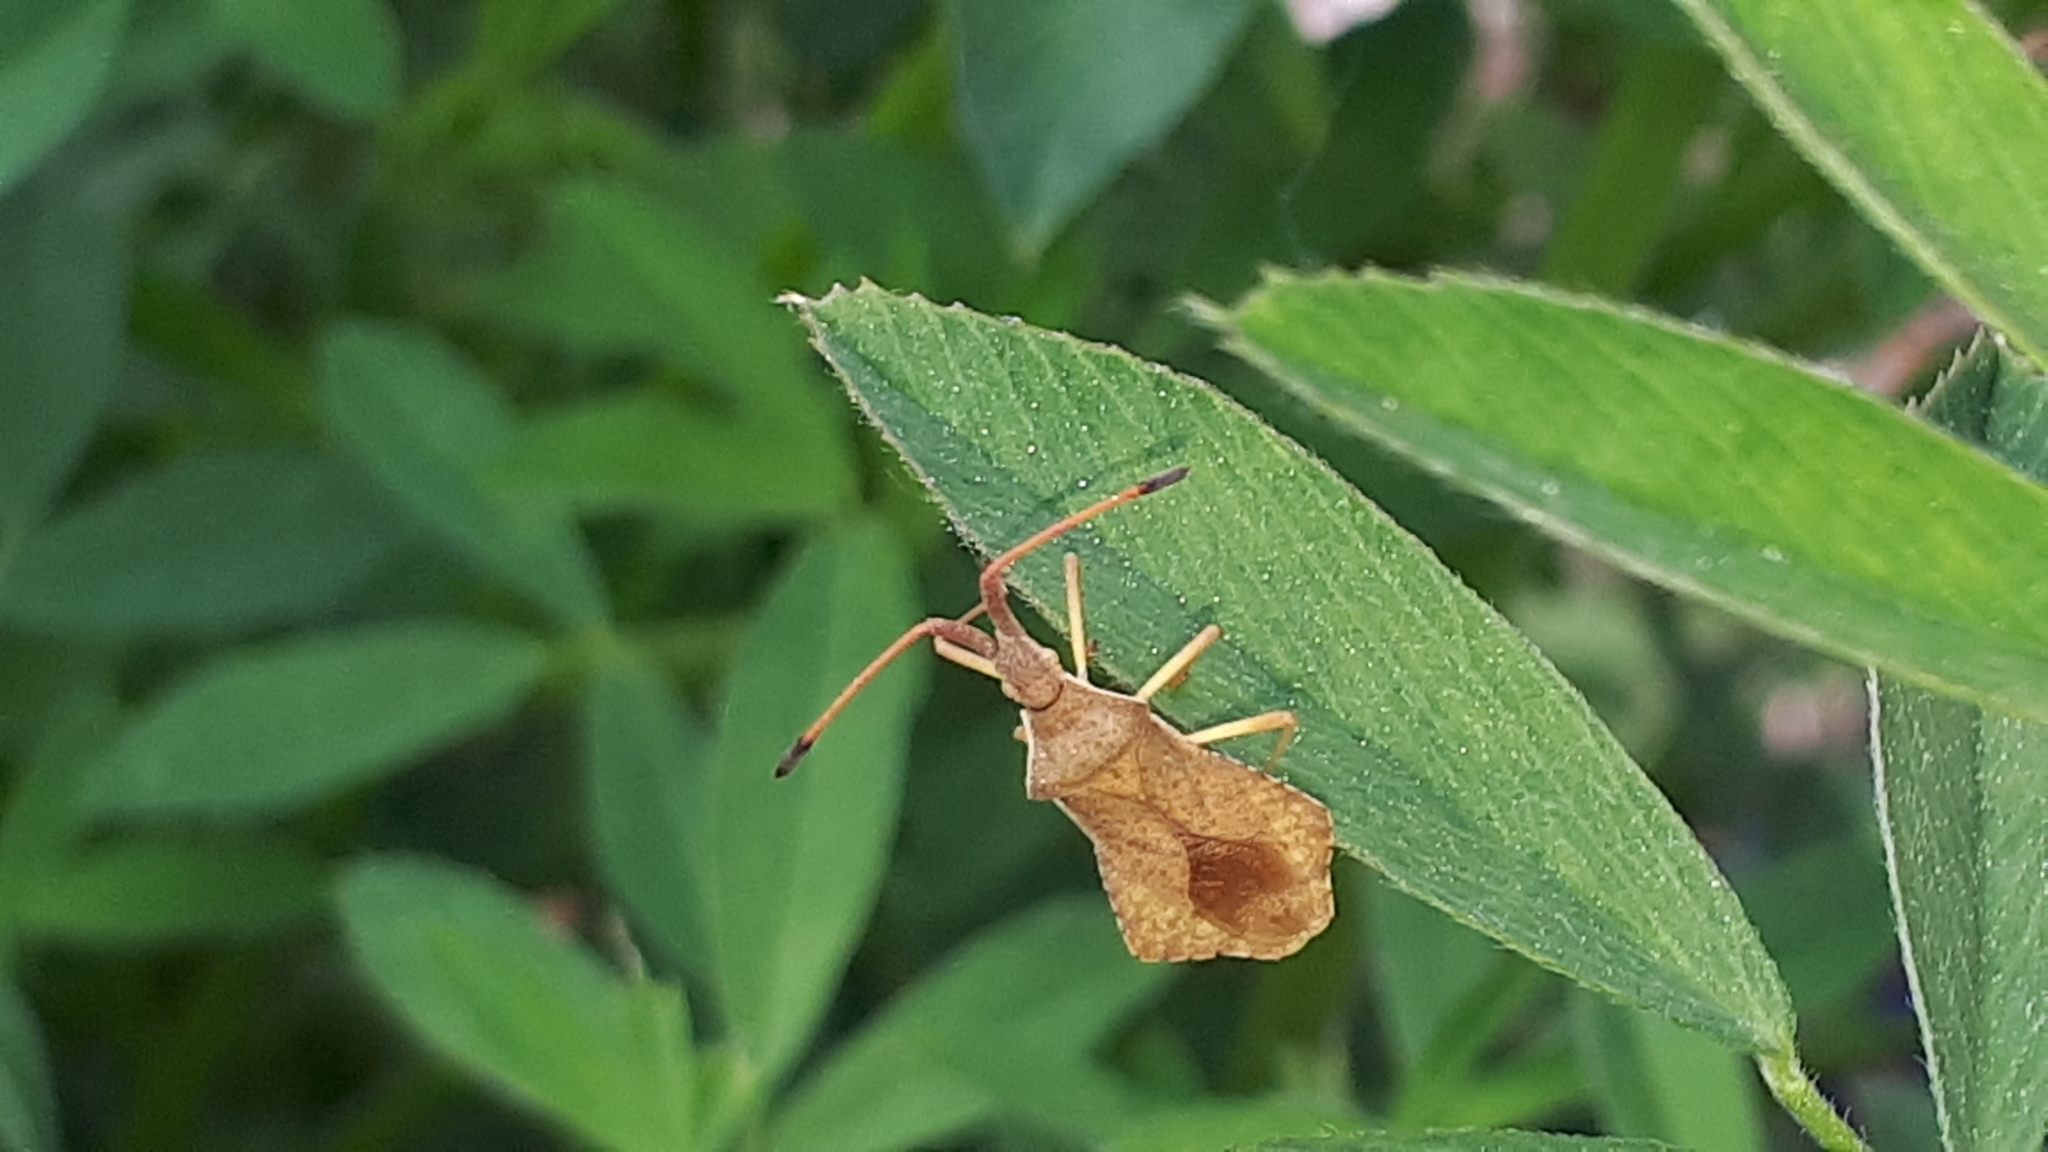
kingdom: Animalia
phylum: Arthropoda
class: Insecta
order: Hemiptera
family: Coreidae
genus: Syromastus
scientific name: Syromastus rhombeus
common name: Rhombic leatherbug
